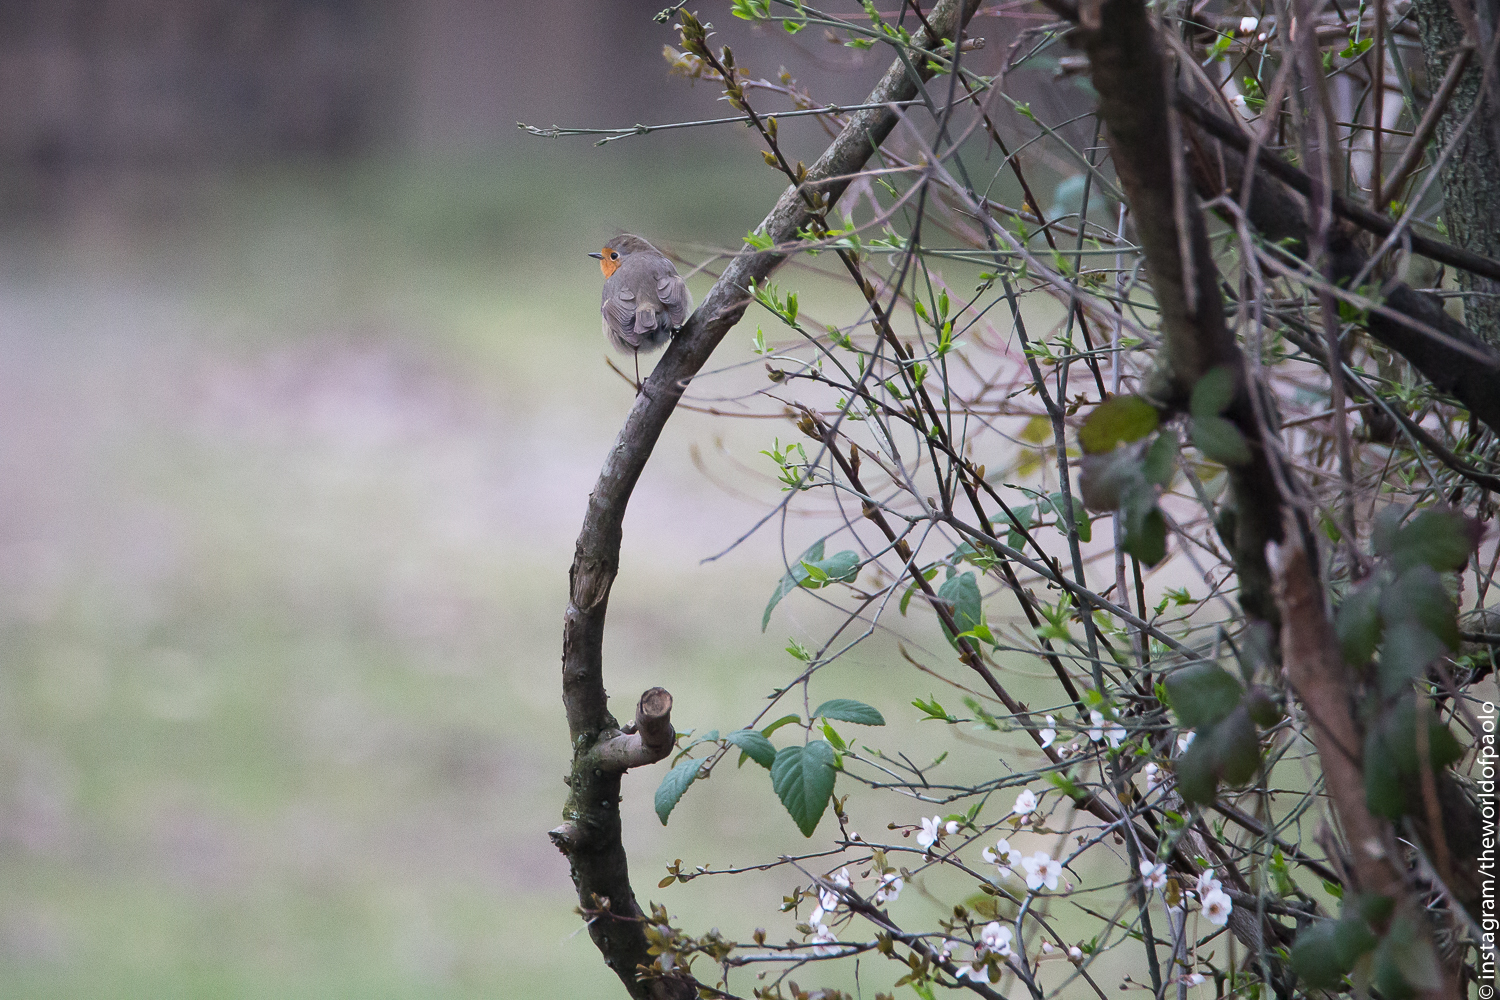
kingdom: Animalia
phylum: Chordata
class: Aves
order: Passeriformes
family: Muscicapidae
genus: Erithacus
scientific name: Erithacus rubecula
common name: European robin
